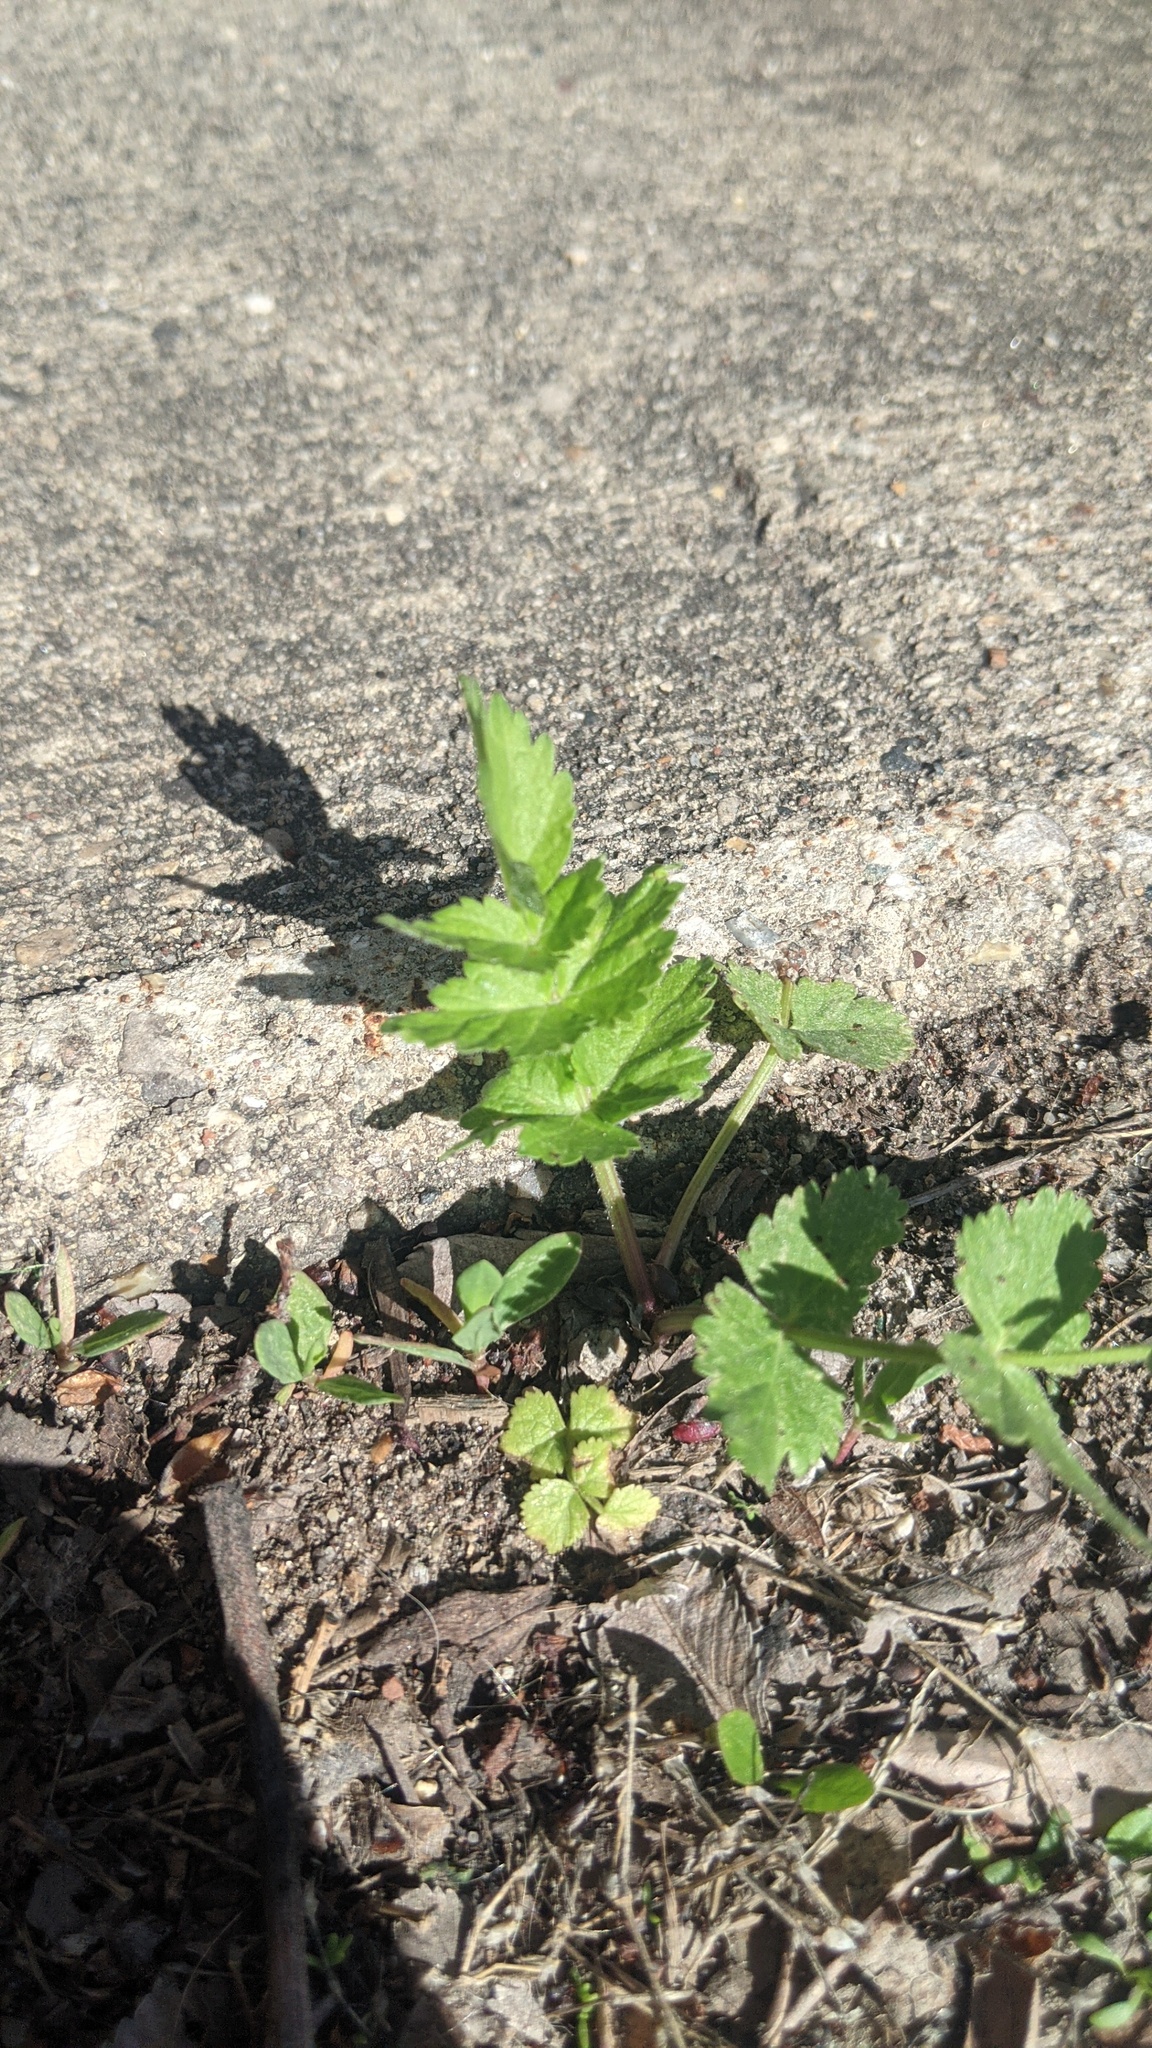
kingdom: Plantae
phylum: Tracheophyta
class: Magnoliopsida
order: Apiales
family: Apiaceae
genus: Pastinaca
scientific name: Pastinaca sativa
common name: Wild parsnip
